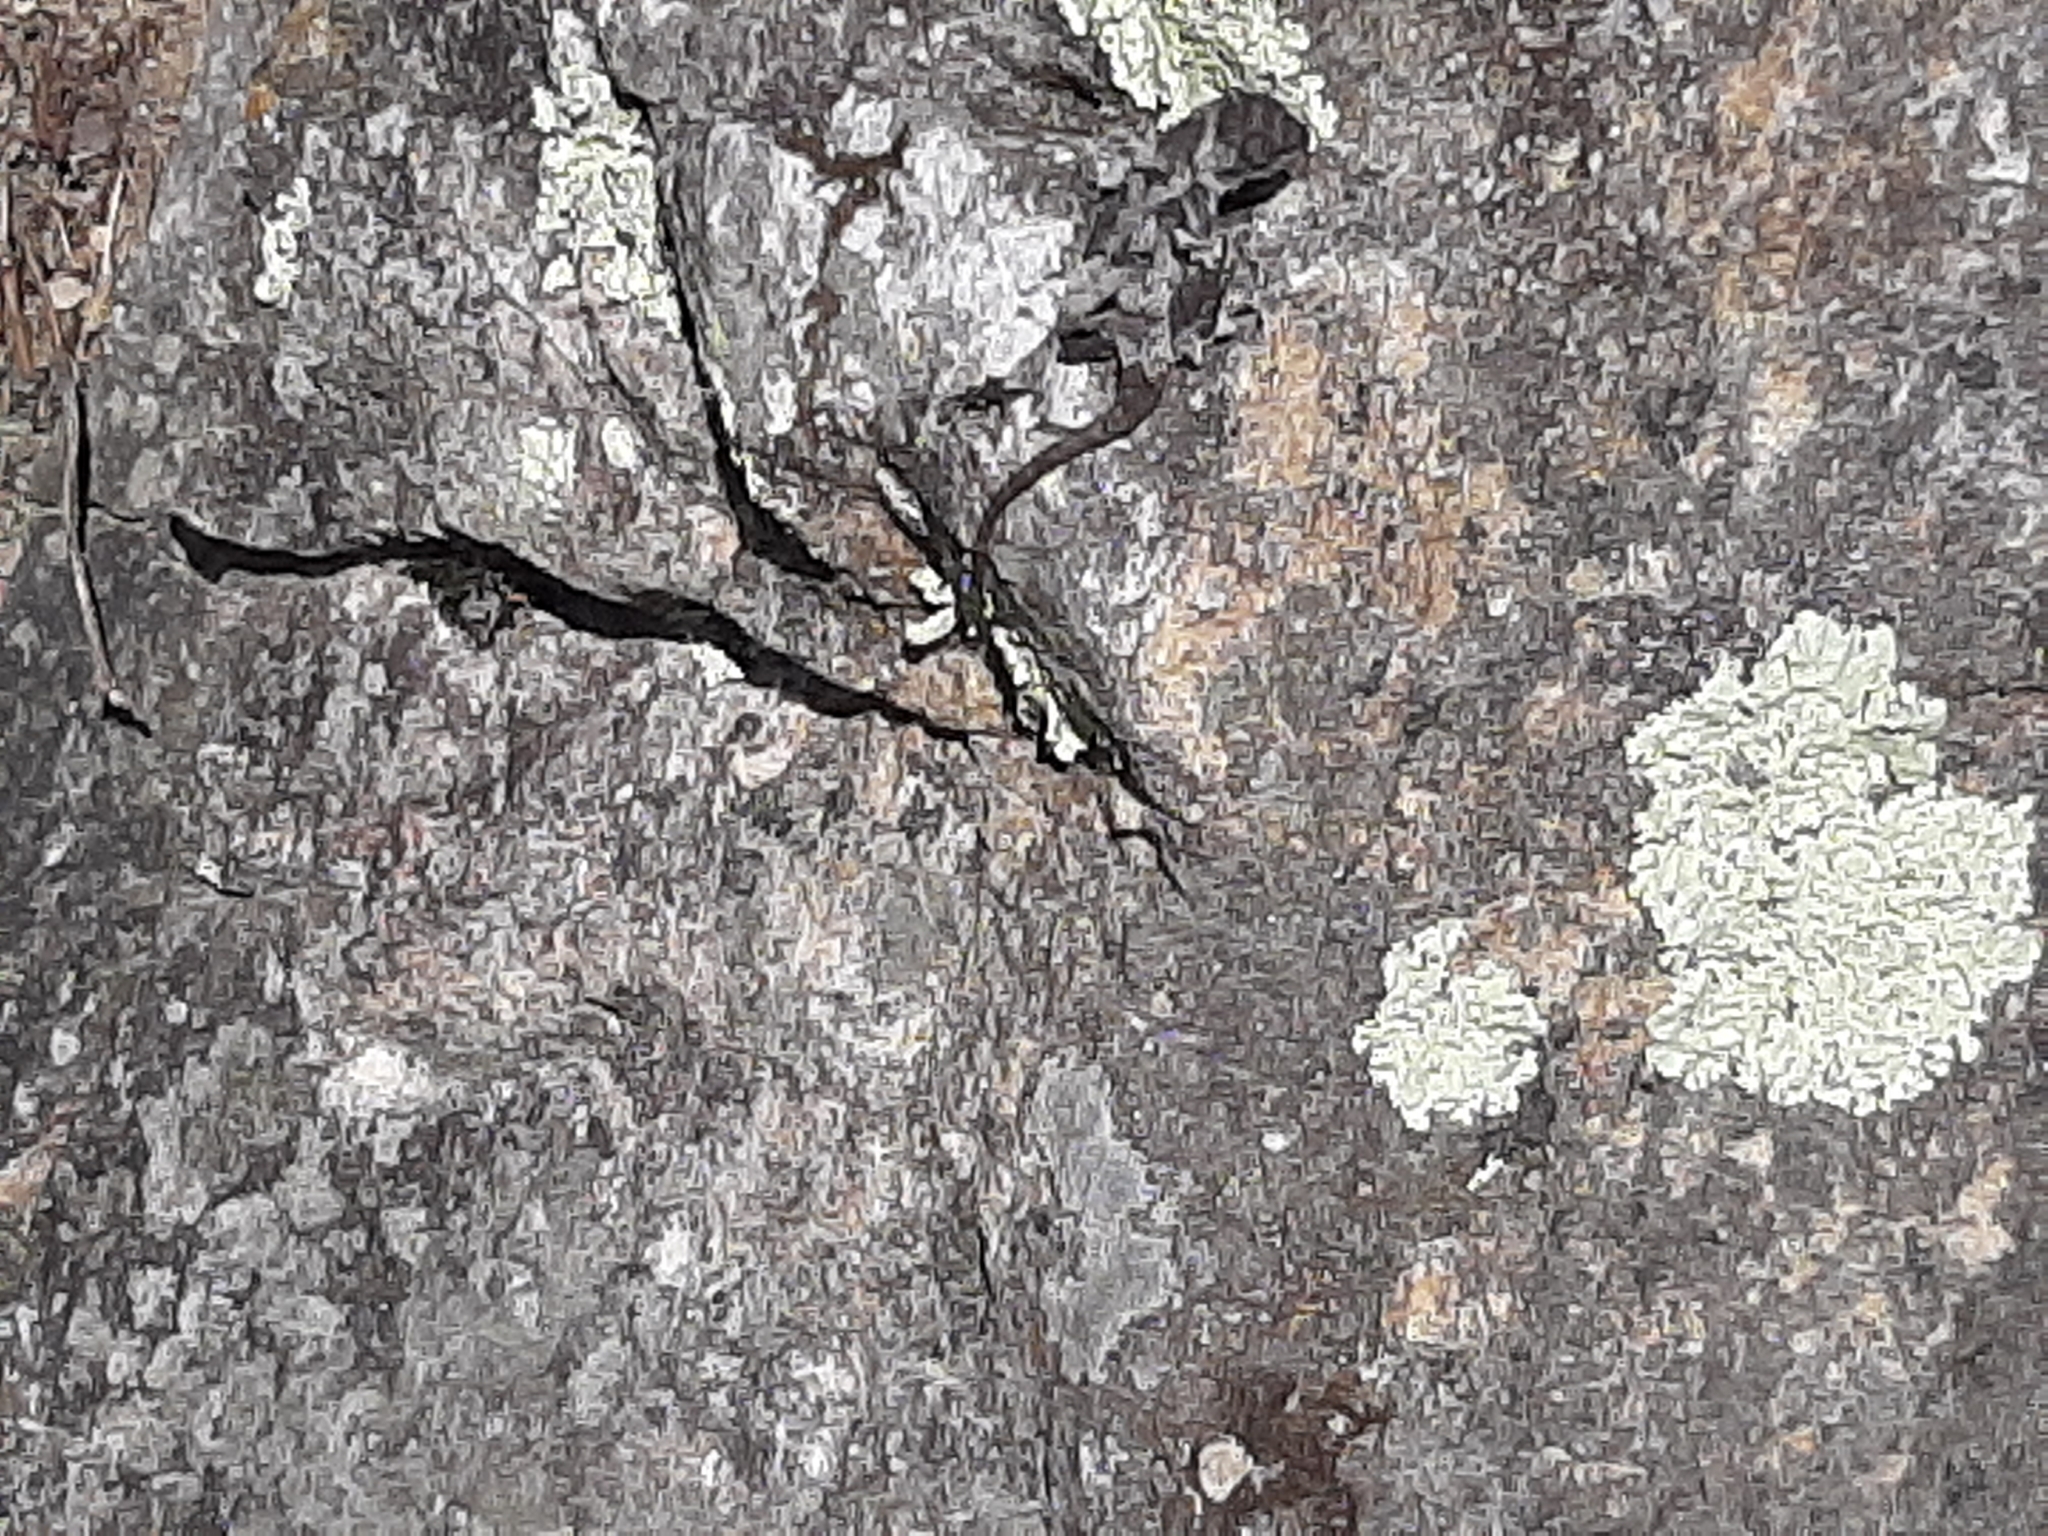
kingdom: Animalia
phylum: Chordata
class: Squamata
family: Phrynosomatidae
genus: Sceloporus
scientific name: Sceloporus undulatus
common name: Eastern fence lizard
